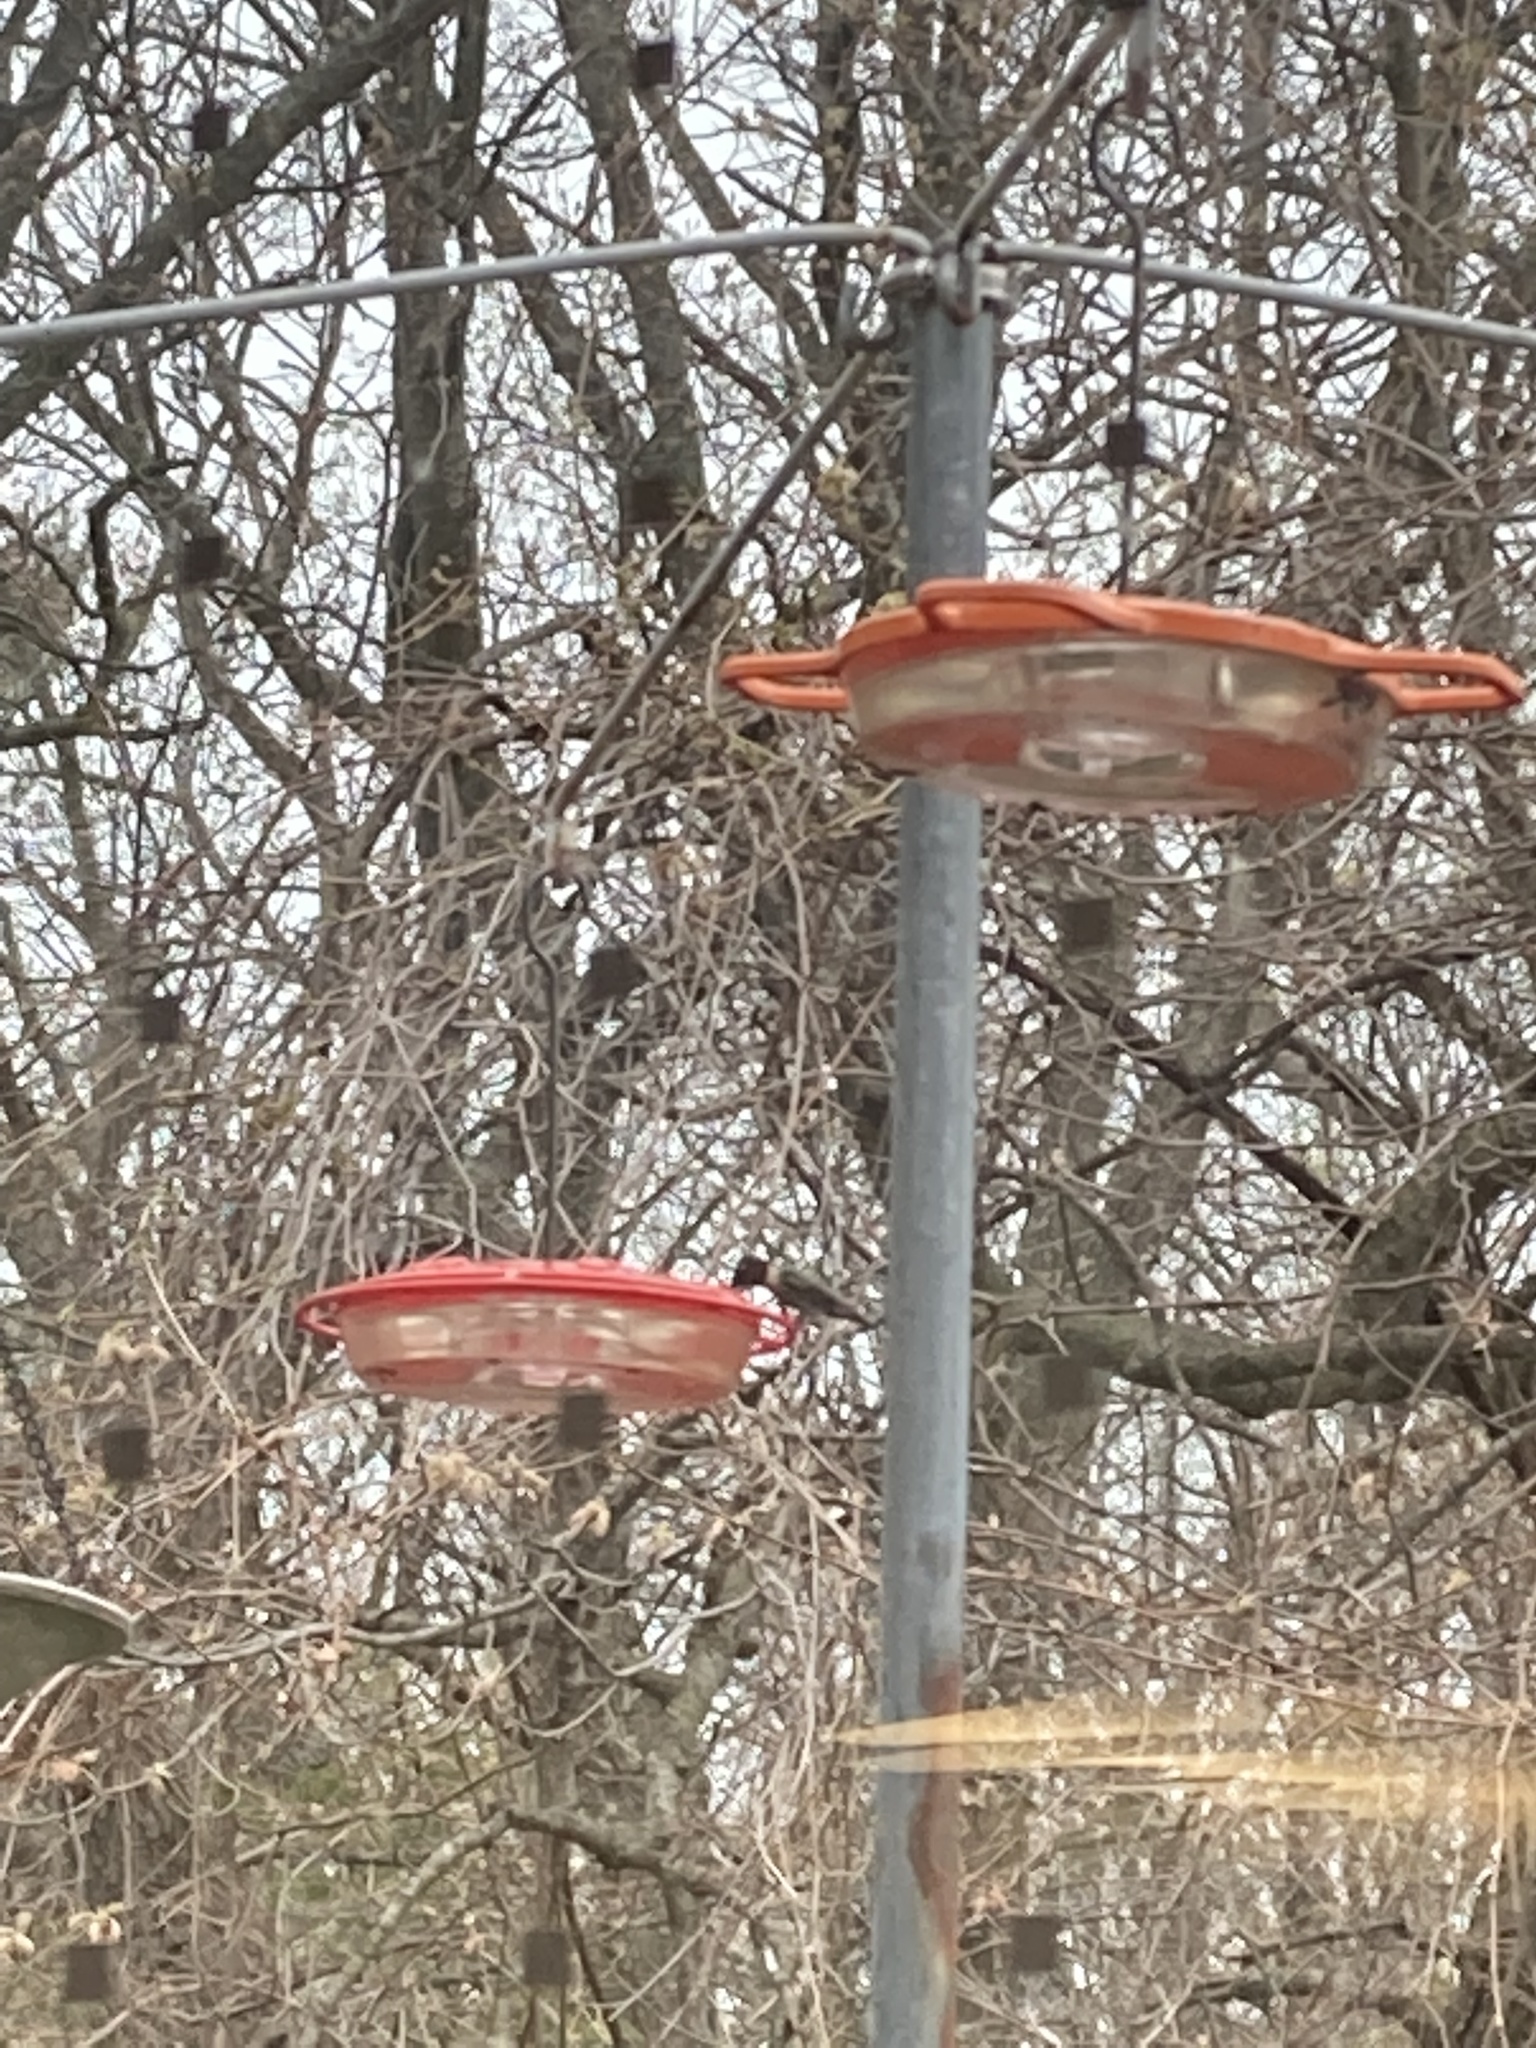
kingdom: Animalia
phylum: Chordata
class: Aves
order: Apodiformes
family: Trochilidae
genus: Archilochus
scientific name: Archilochus colubris
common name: Ruby-throated hummingbird
